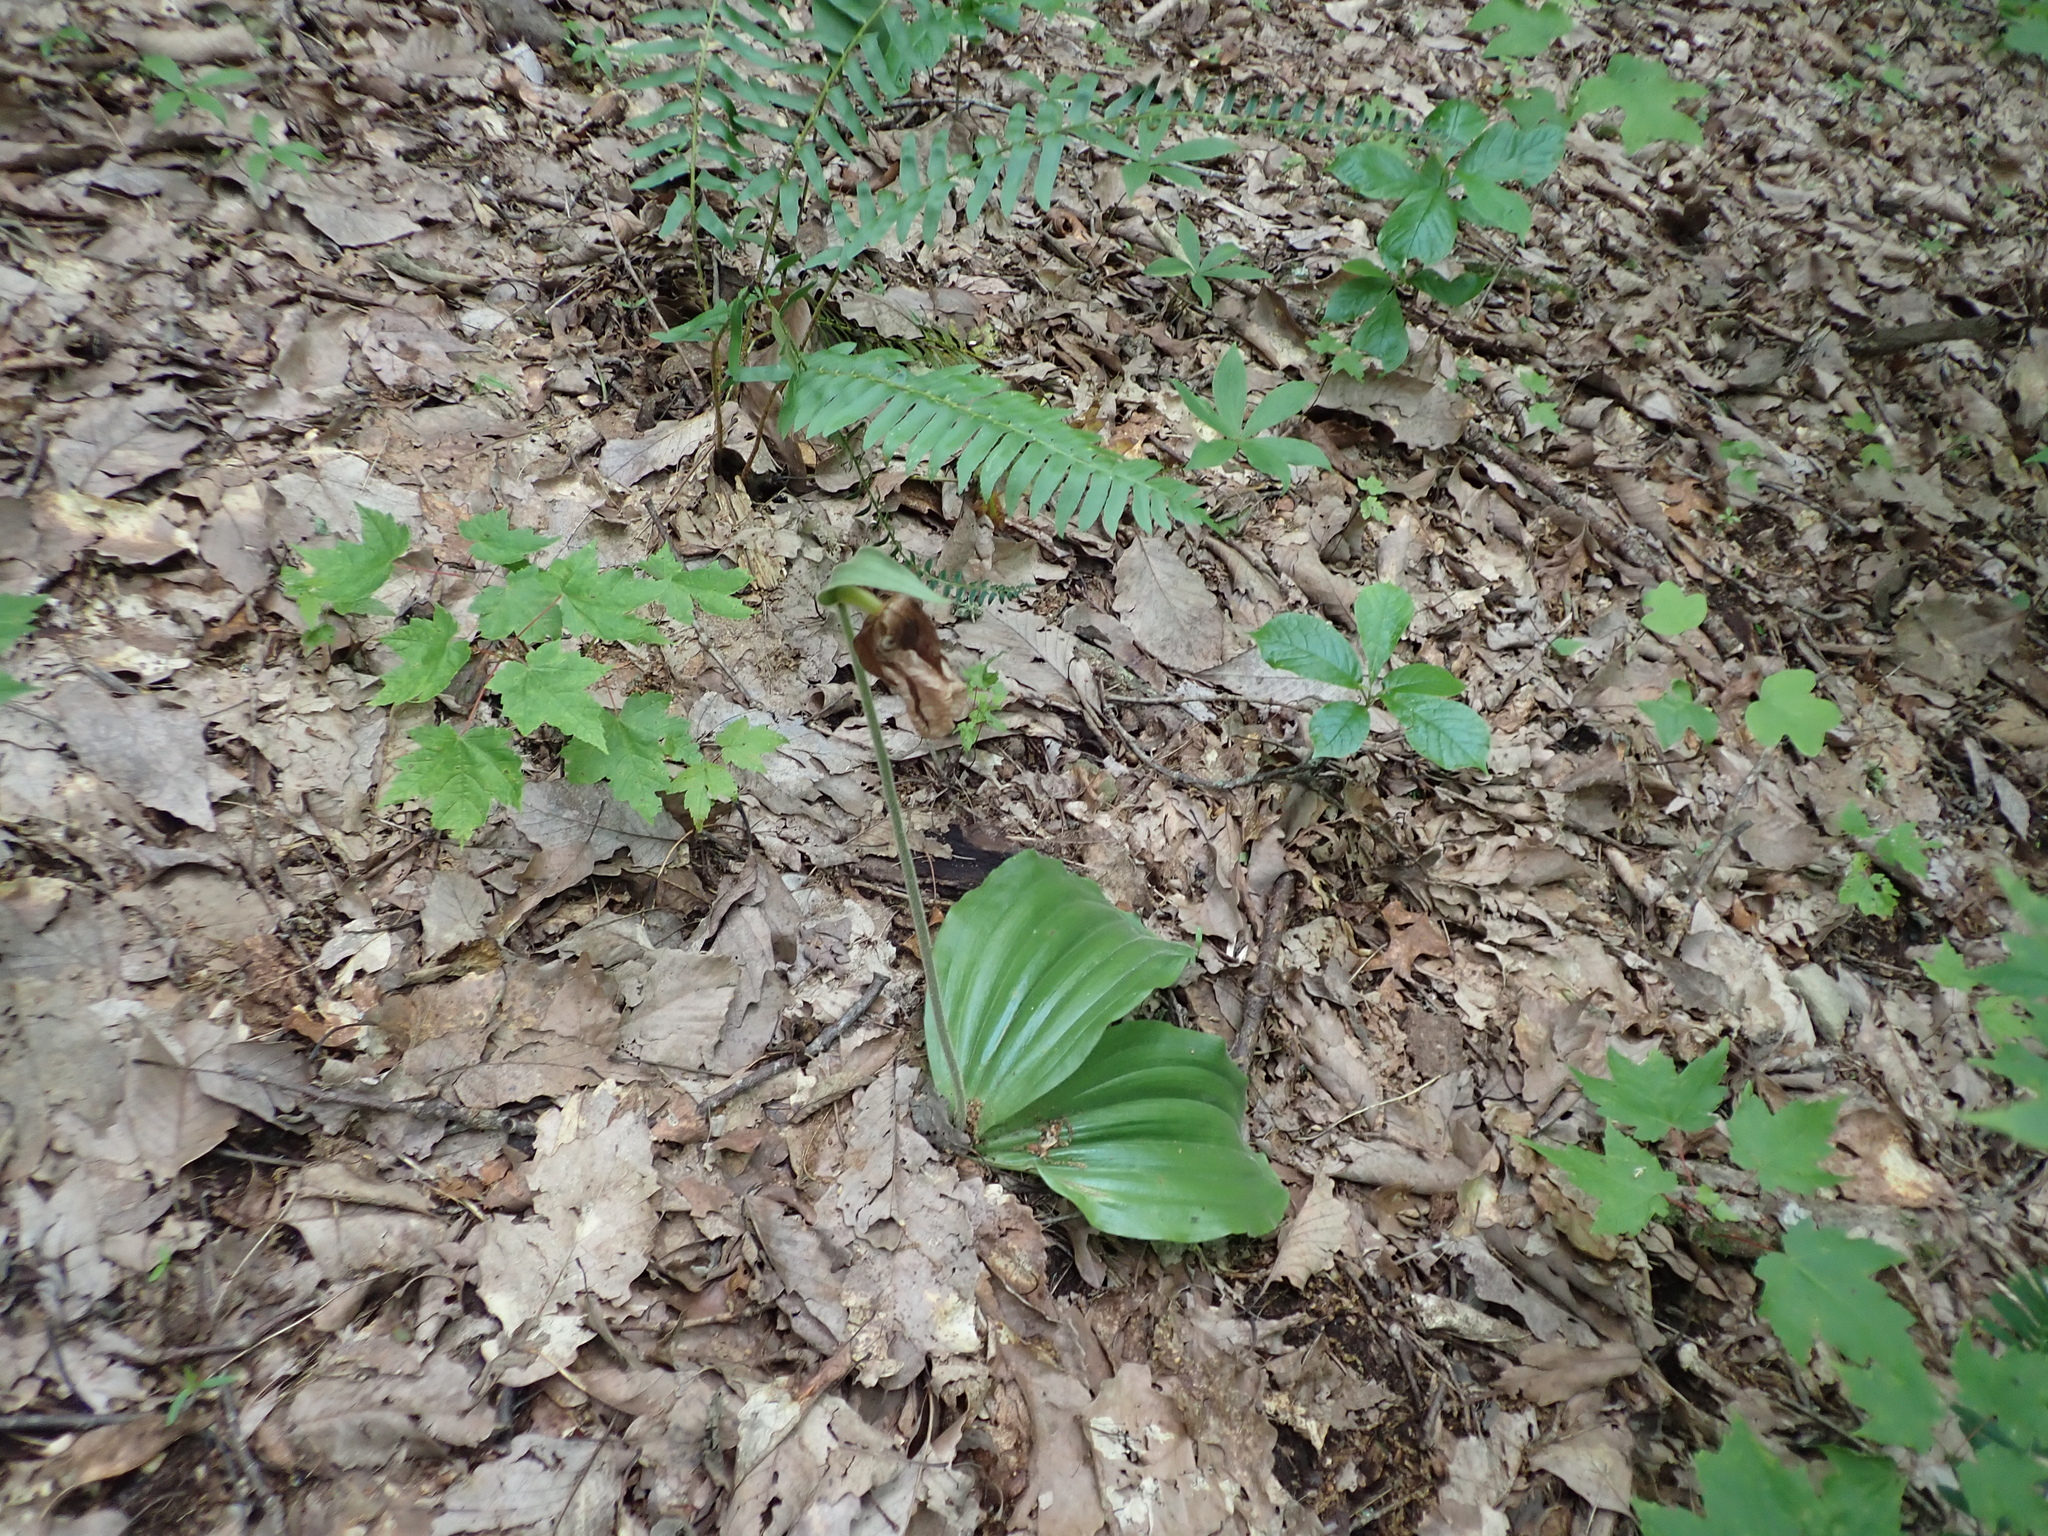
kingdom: Plantae
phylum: Tracheophyta
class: Liliopsida
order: Asparagales
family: Orchidaceae
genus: Cypripedium
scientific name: Cypripedium acaule
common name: Pink lady's-slipper
